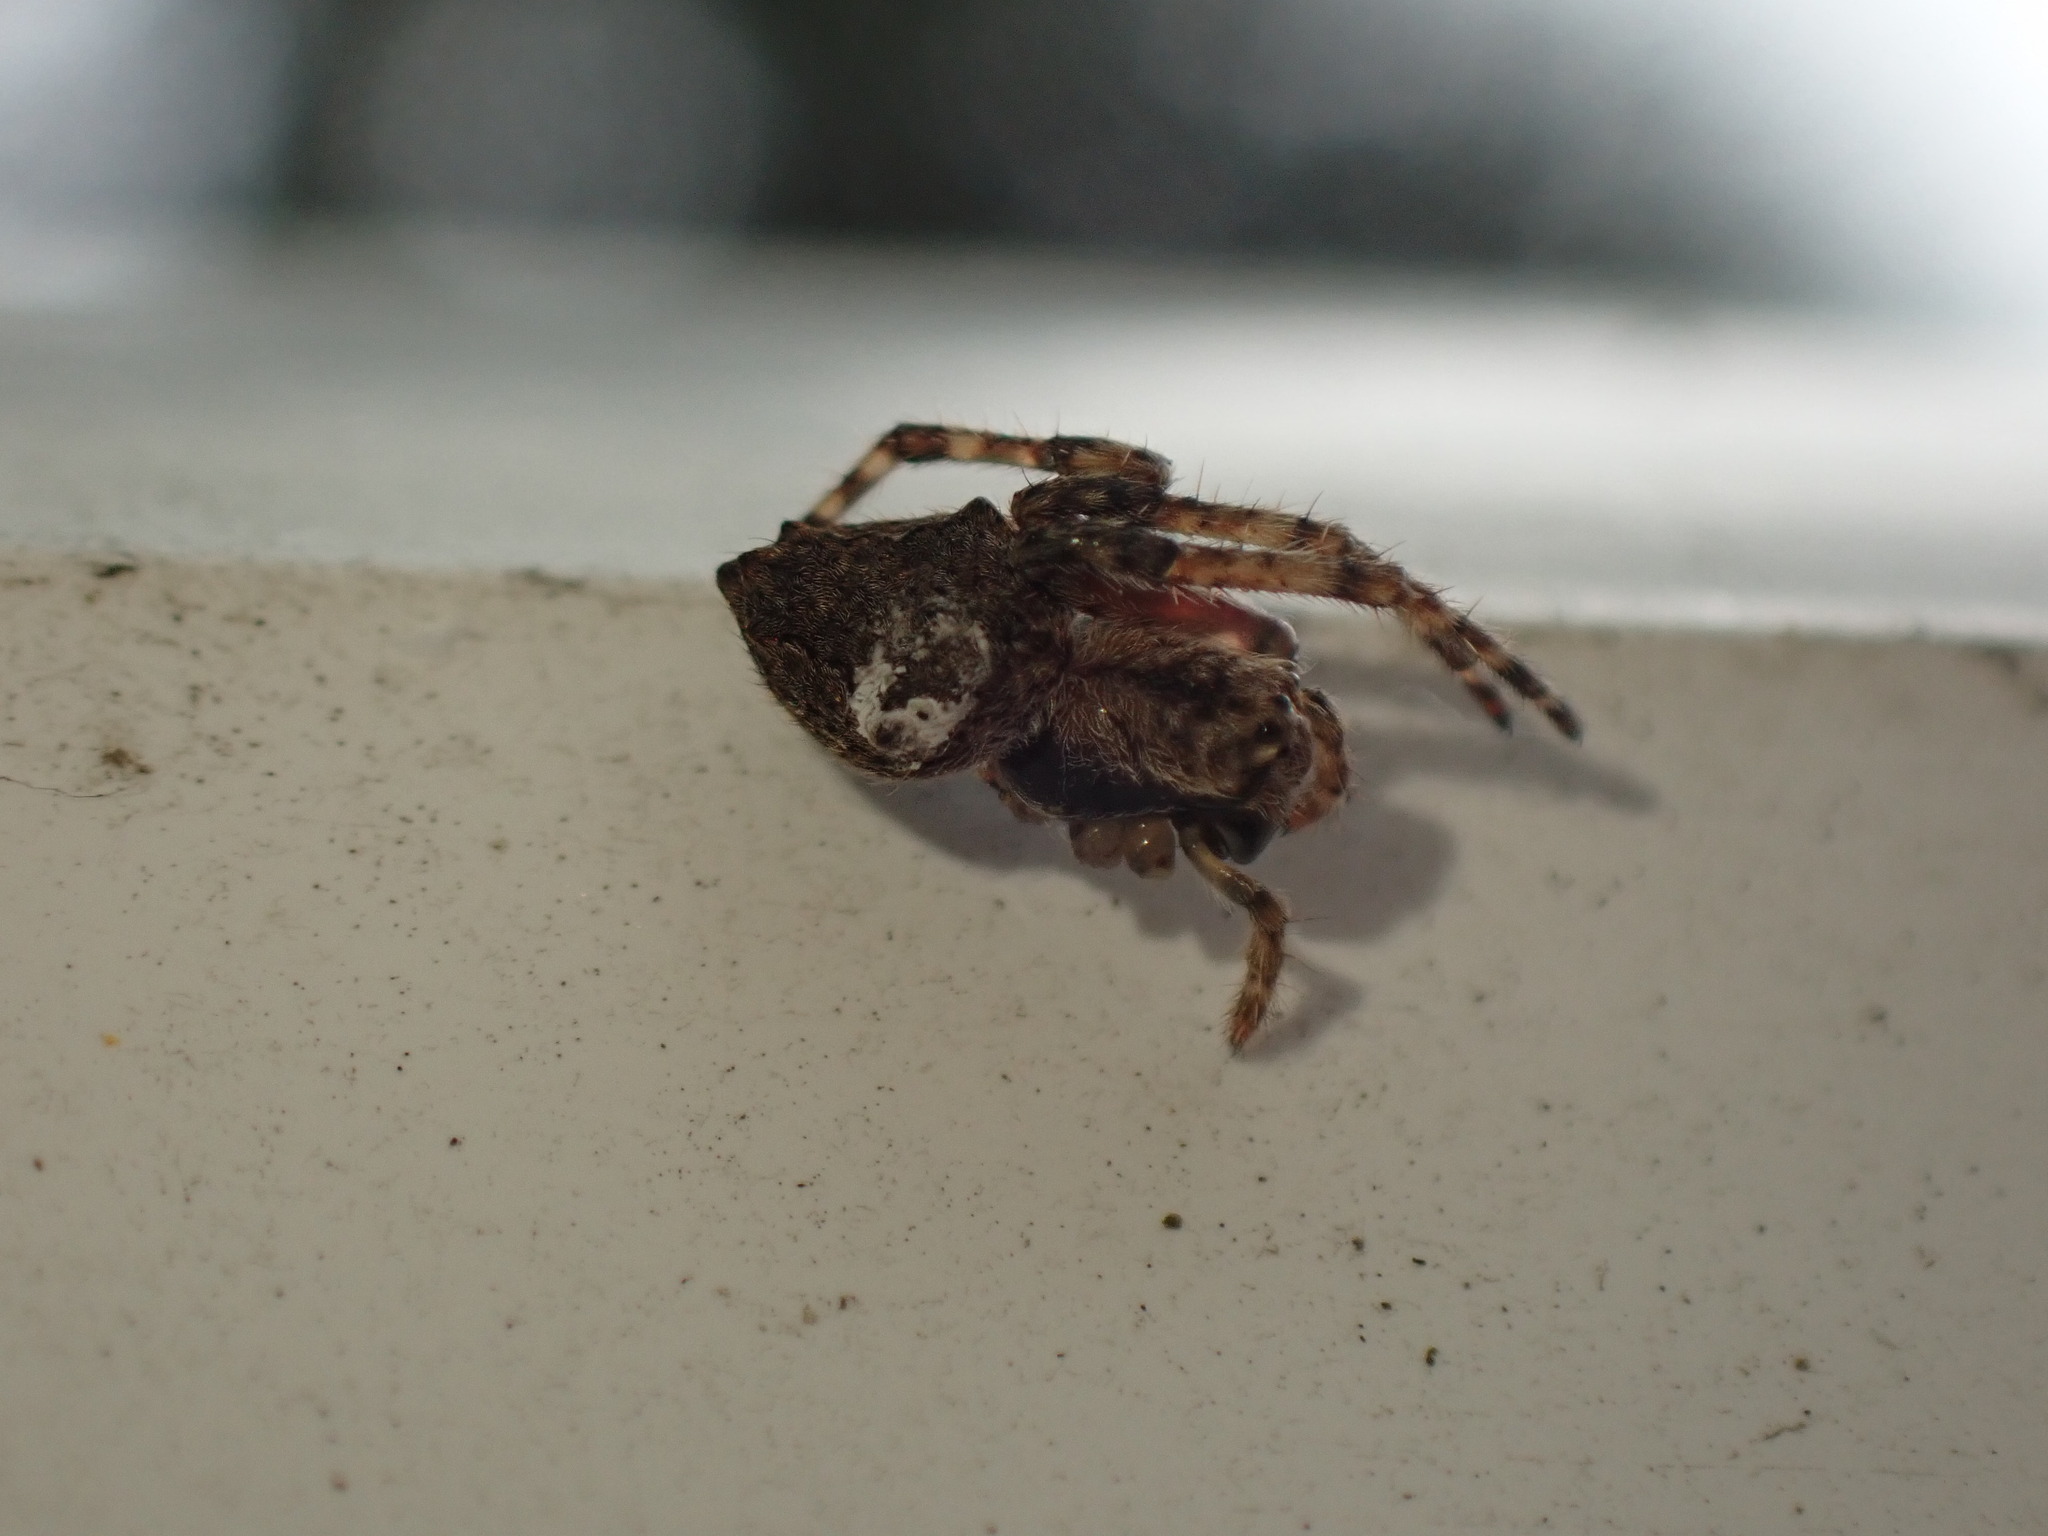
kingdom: Animalia
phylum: Arthropoda
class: Arachnida
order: Araneae
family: Araneidae
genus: Eriophora
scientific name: Eriophora pustulosa
